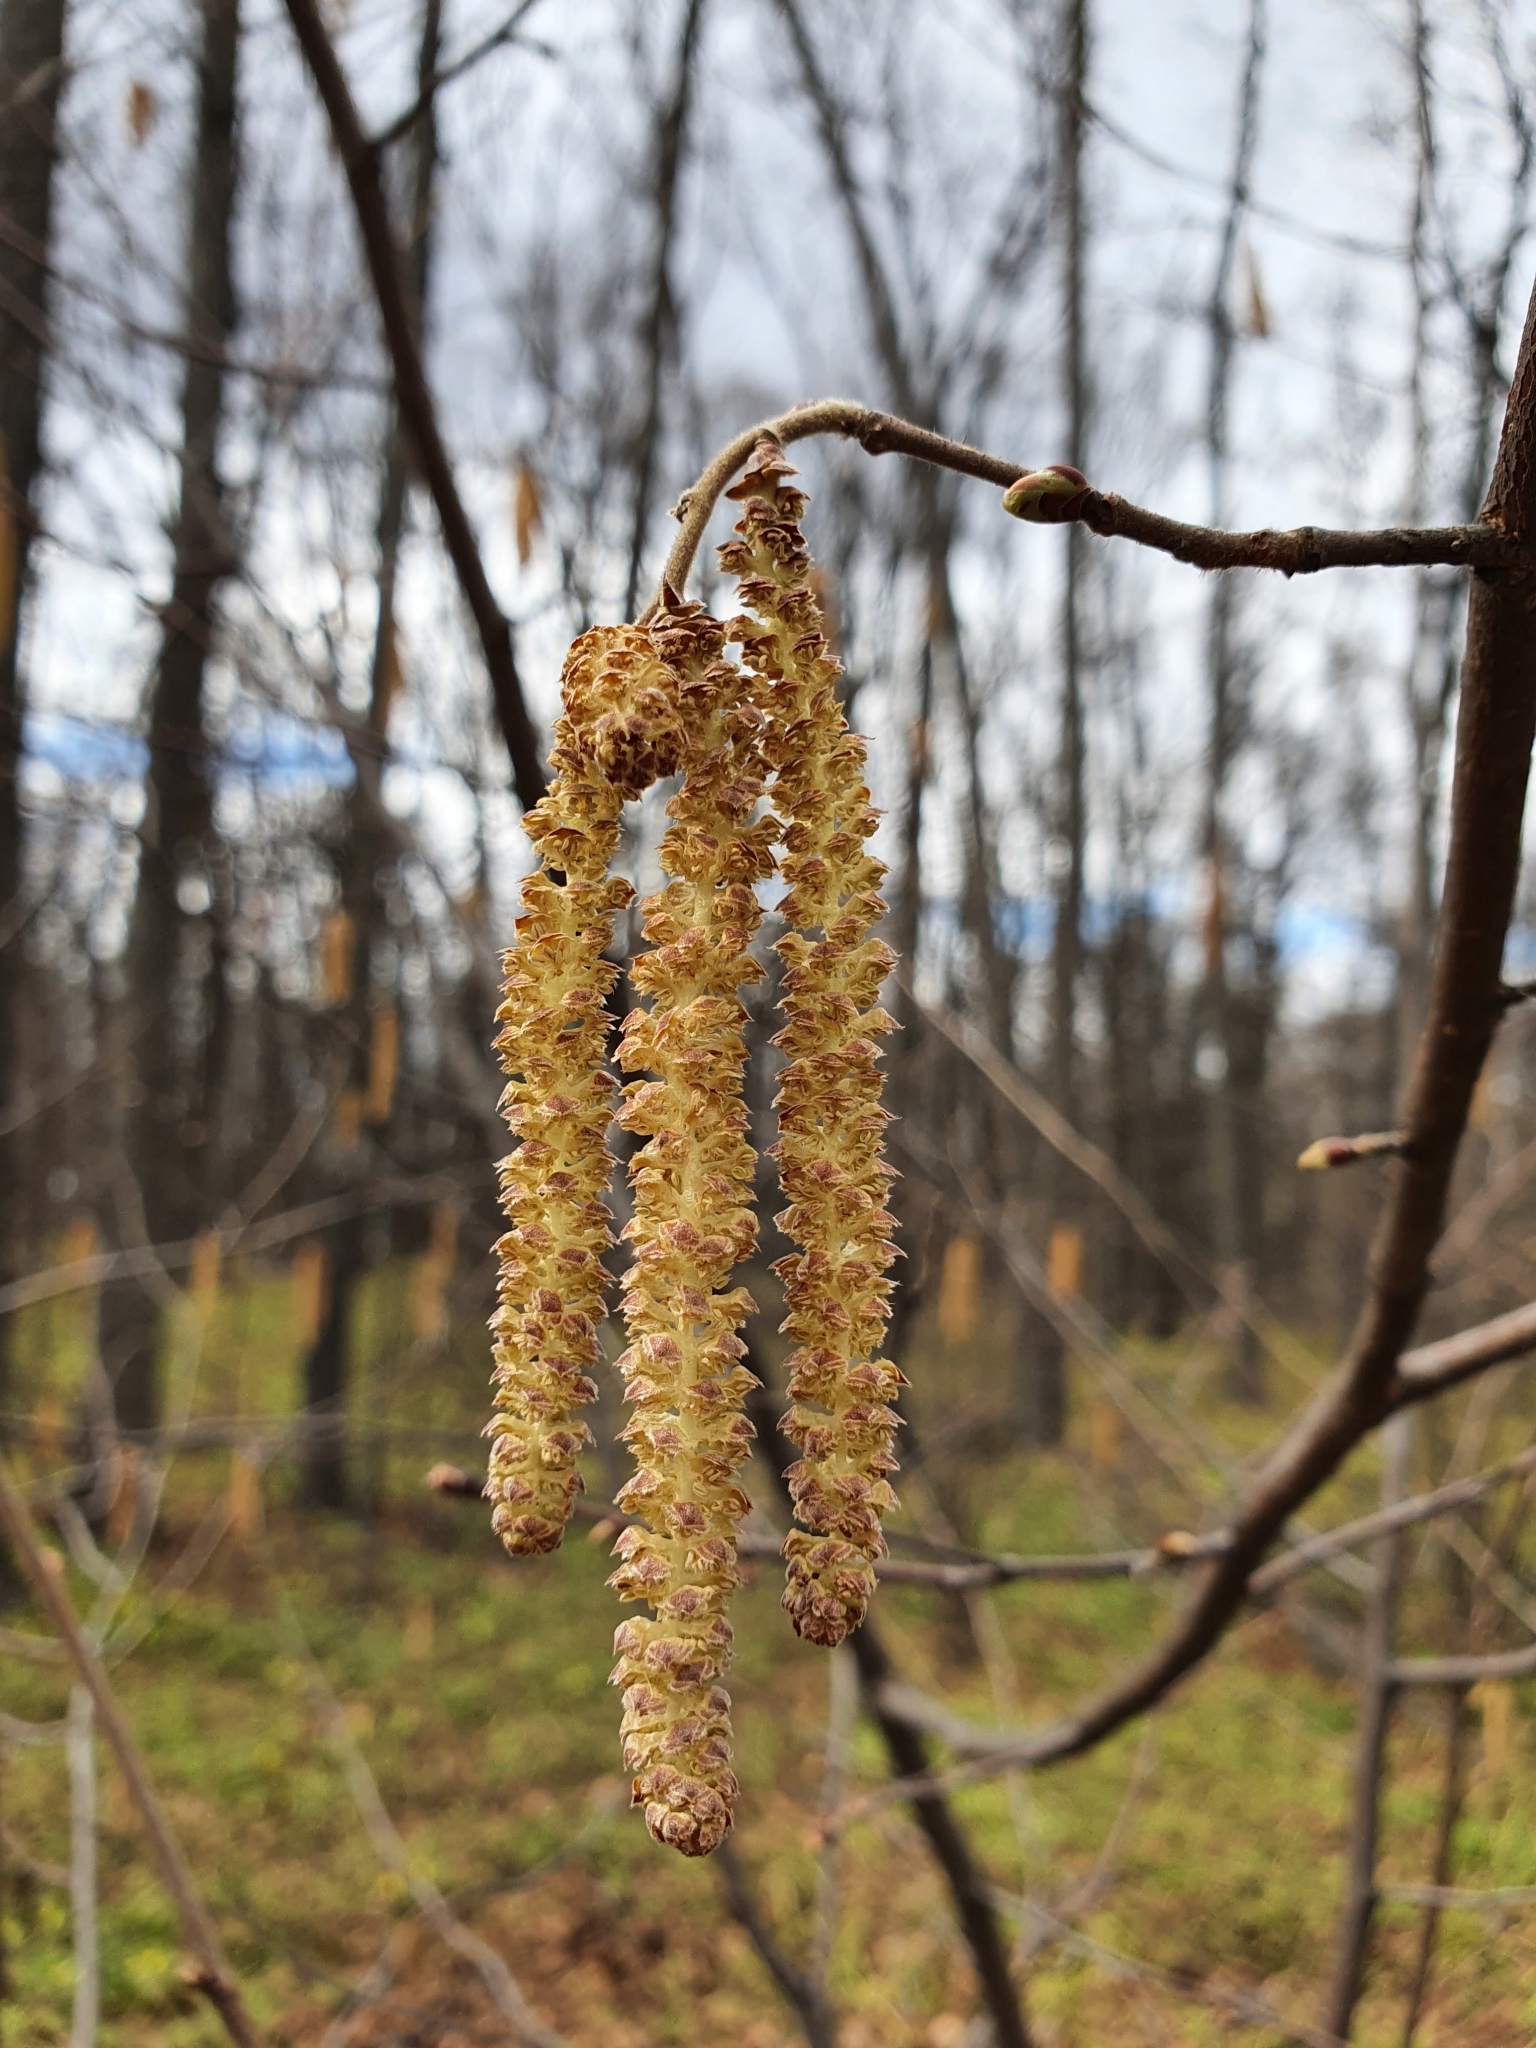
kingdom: Plantae
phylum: Tracheophyta
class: Magnoliopsida
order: Fagales
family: Betulaceae
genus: Corylus
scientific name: Corylus avellana
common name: European hazel
